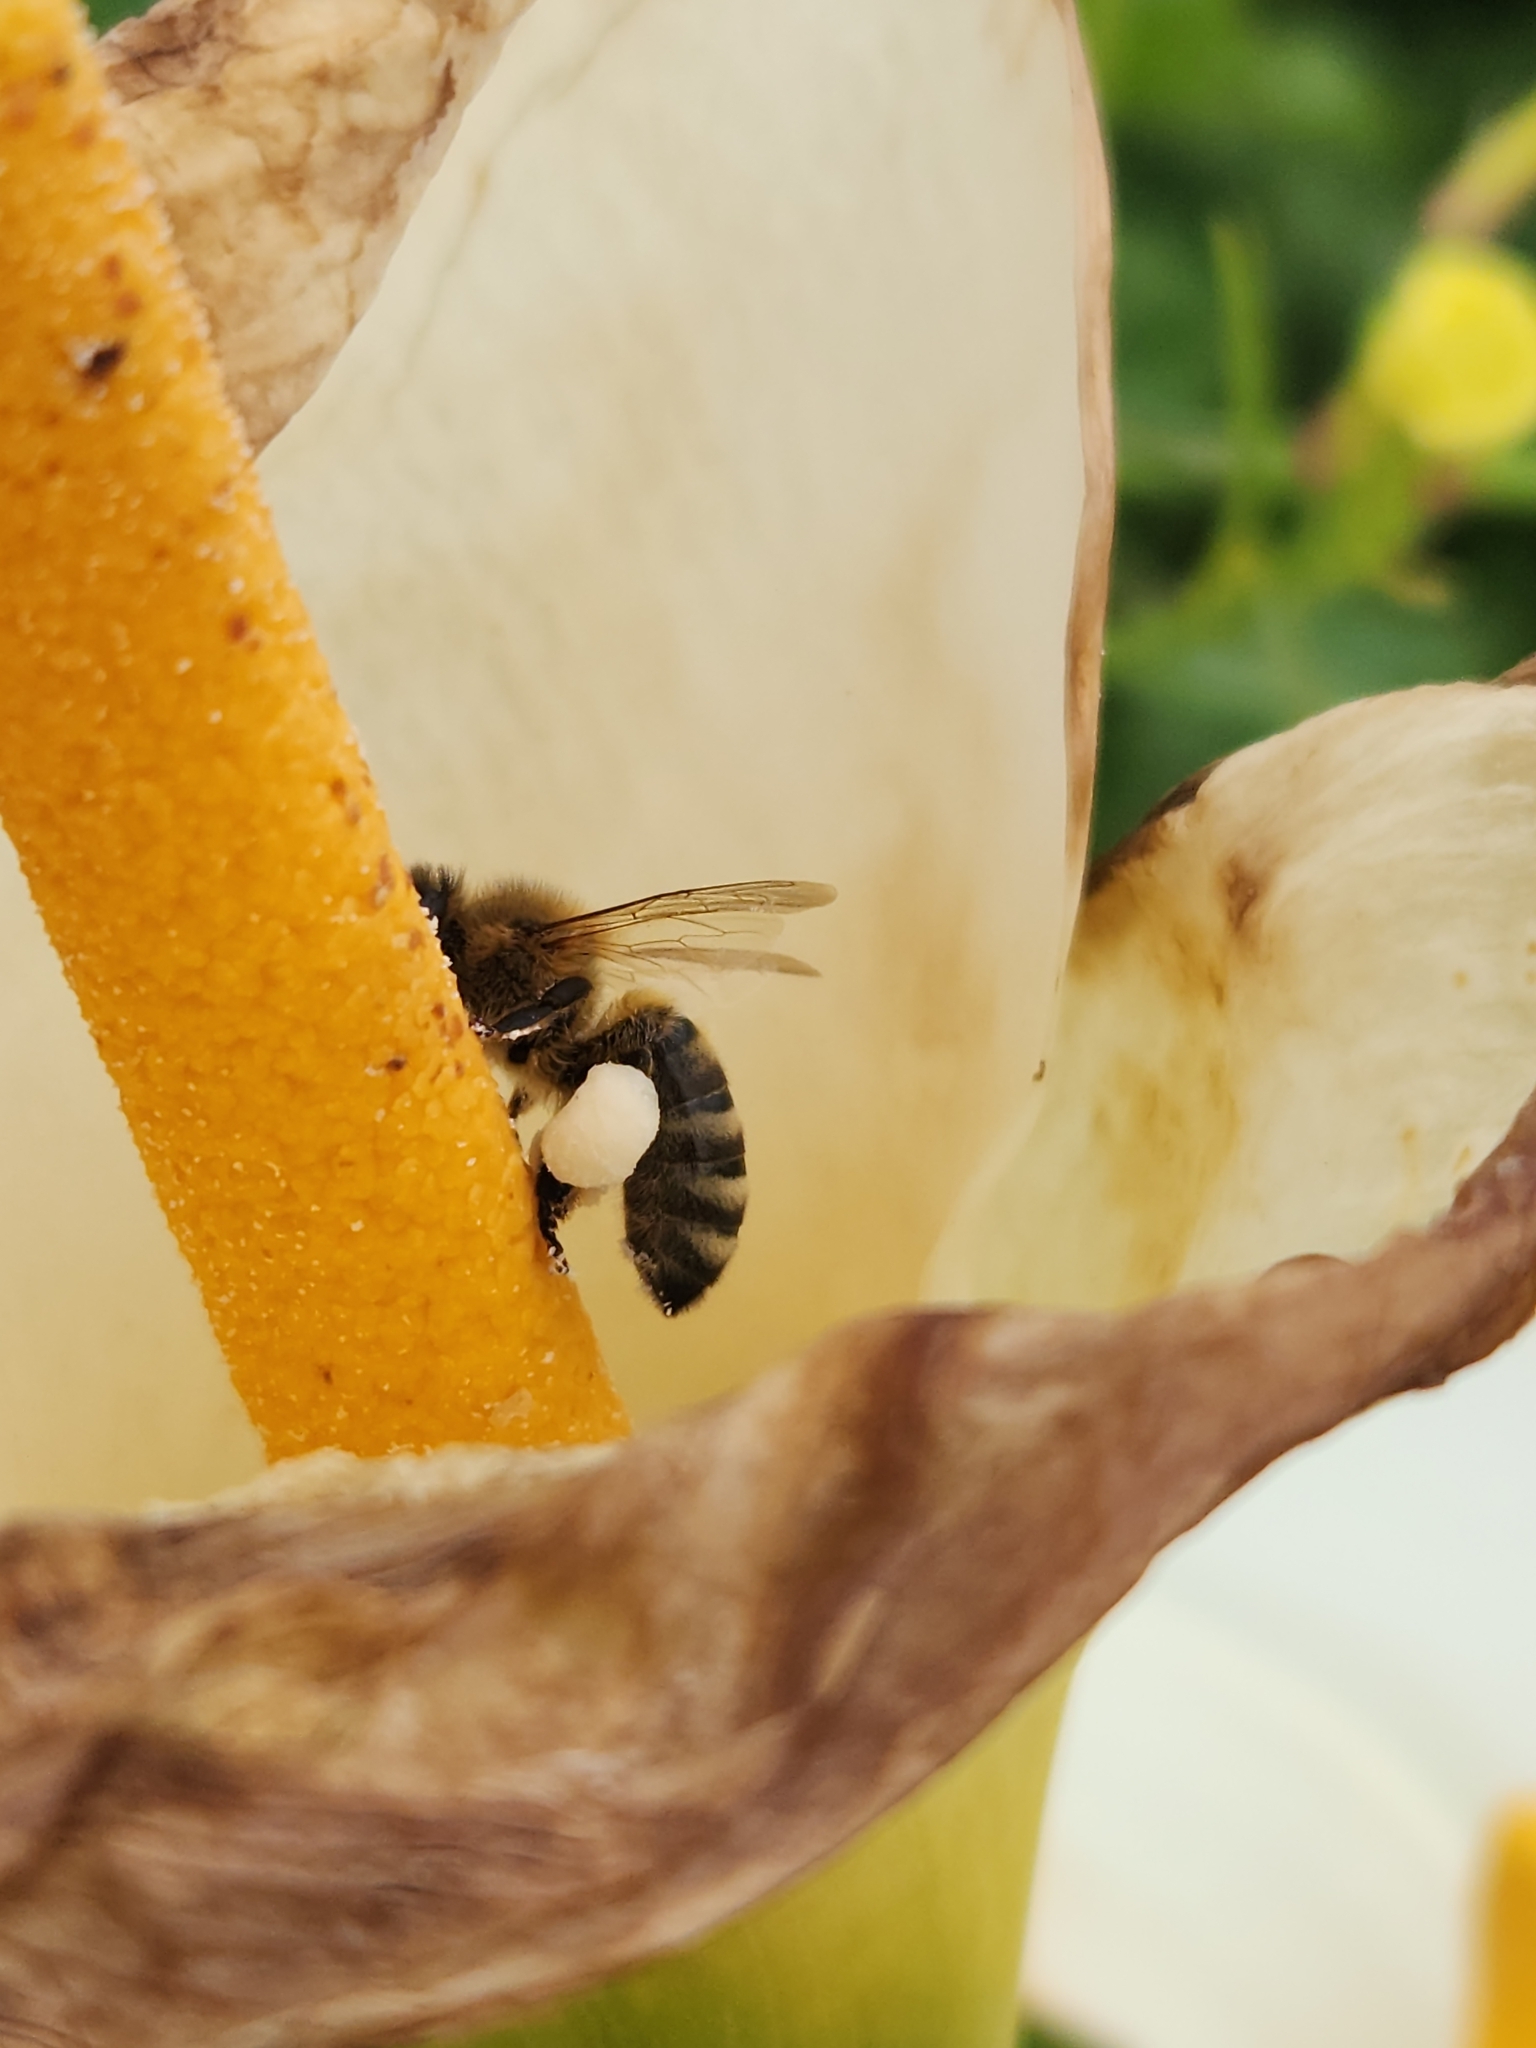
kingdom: Animalia
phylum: Arthropoda
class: Insecta
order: Hymenoptera
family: Apidae
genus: Apis
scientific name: Apis mellifera
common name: Honey bee
